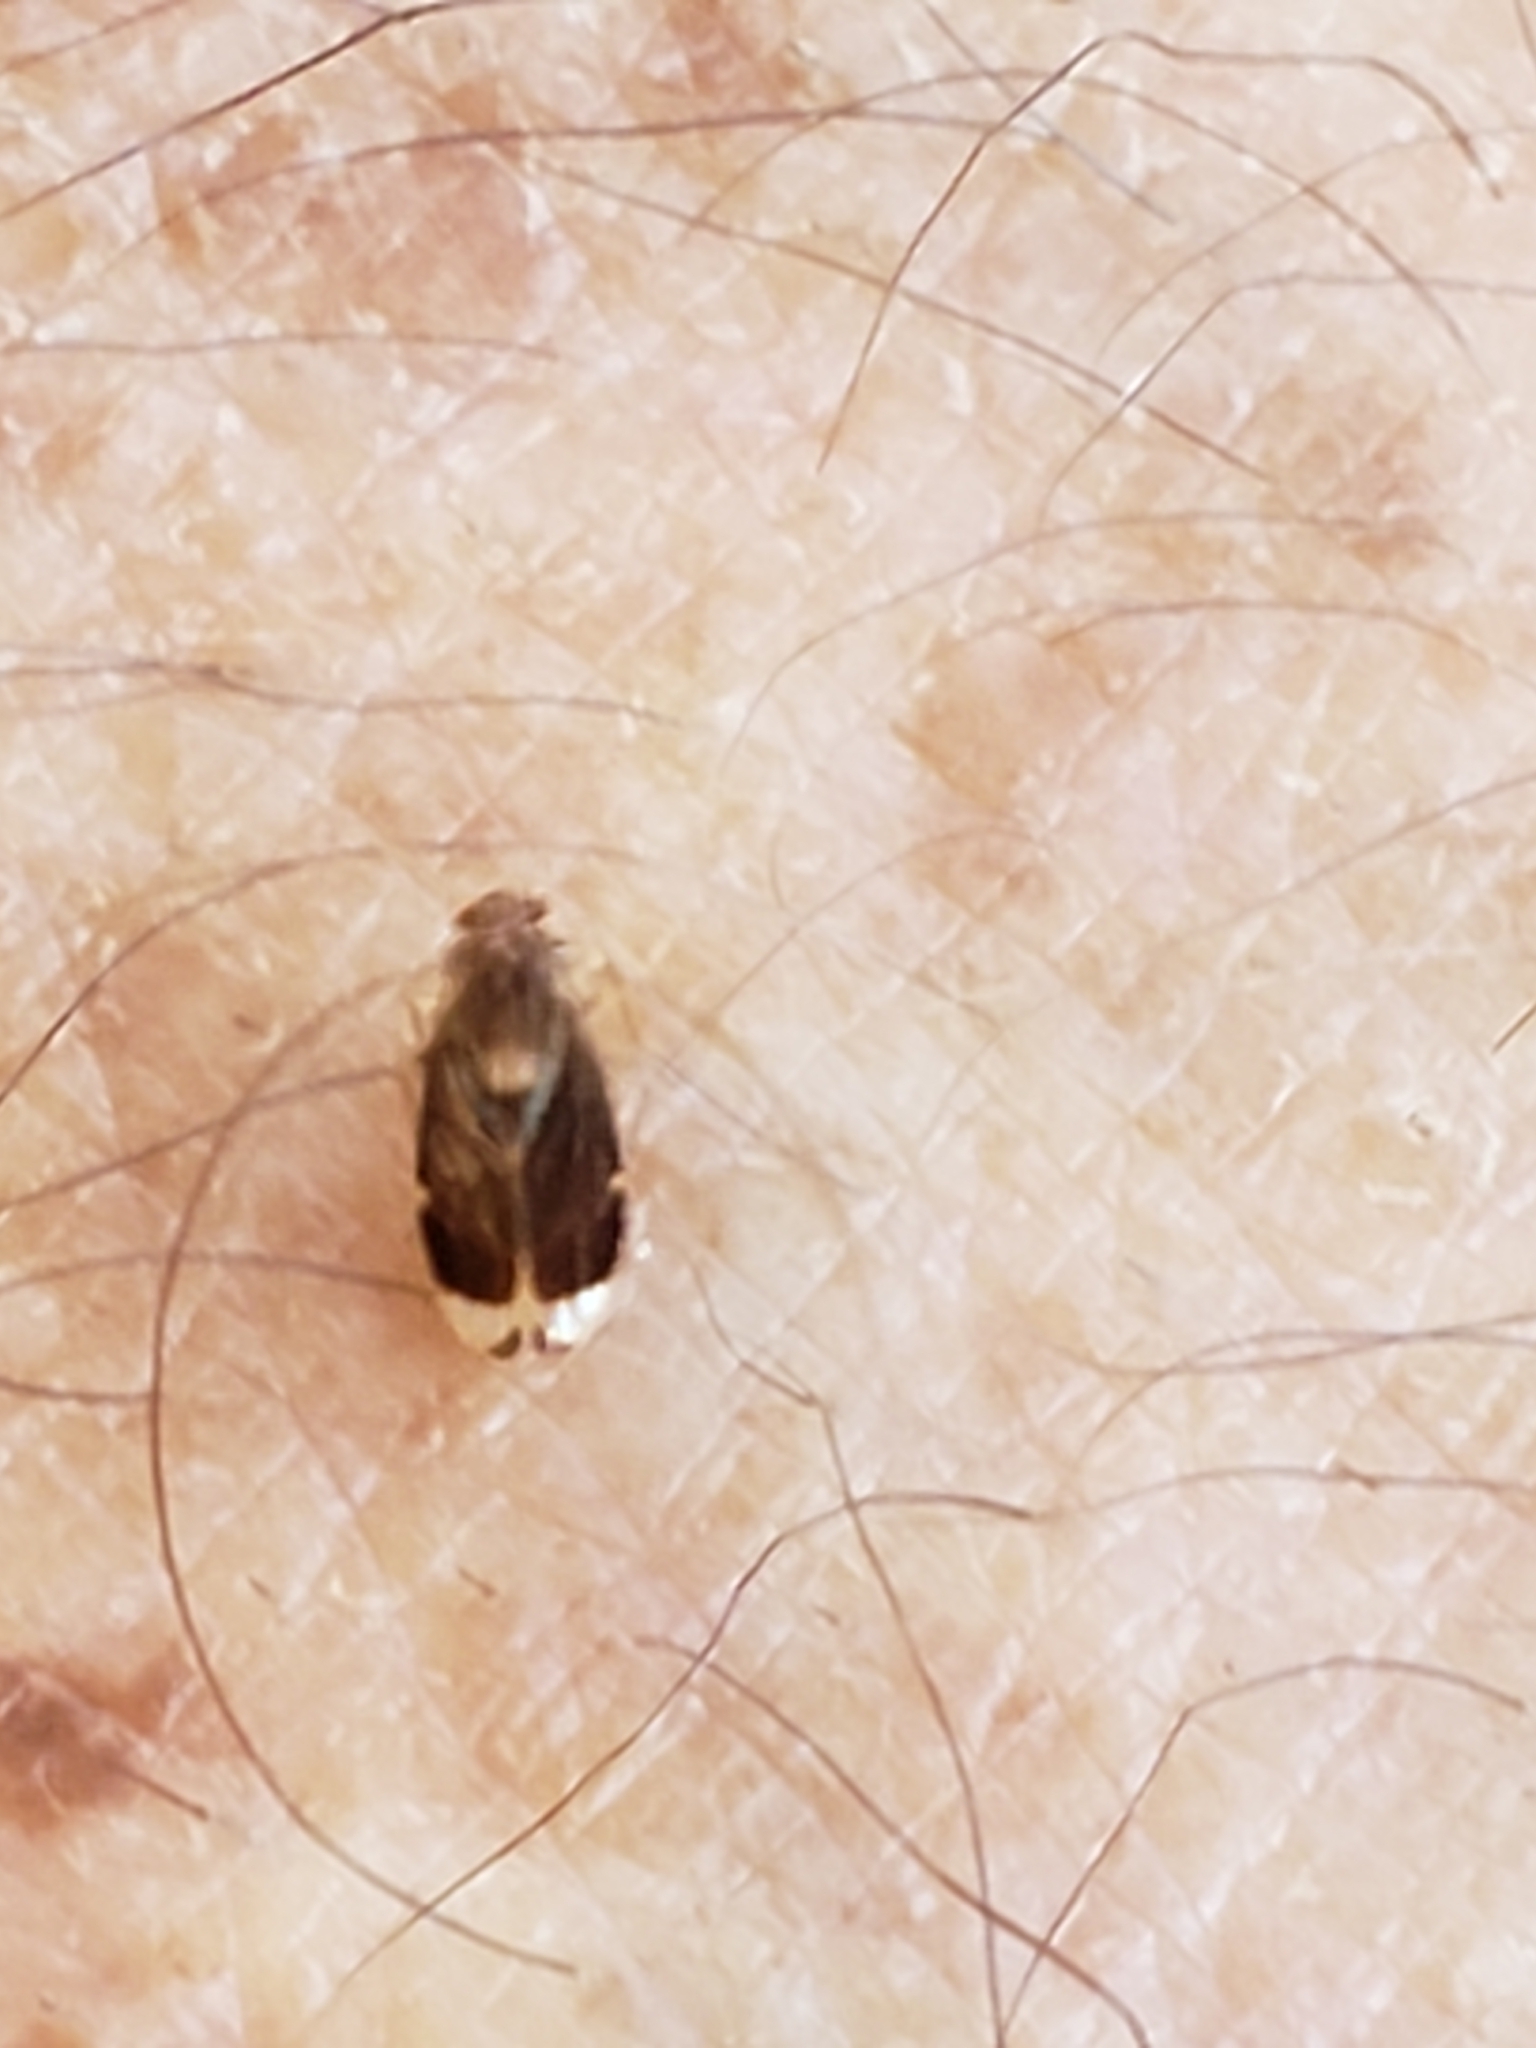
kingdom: Animalia
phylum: Arthropoda
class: Insecta
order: Psocodea
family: Amphipsocidae
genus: Polypsocus
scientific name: Polypsocus corruptus
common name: Corrupt barklouse
